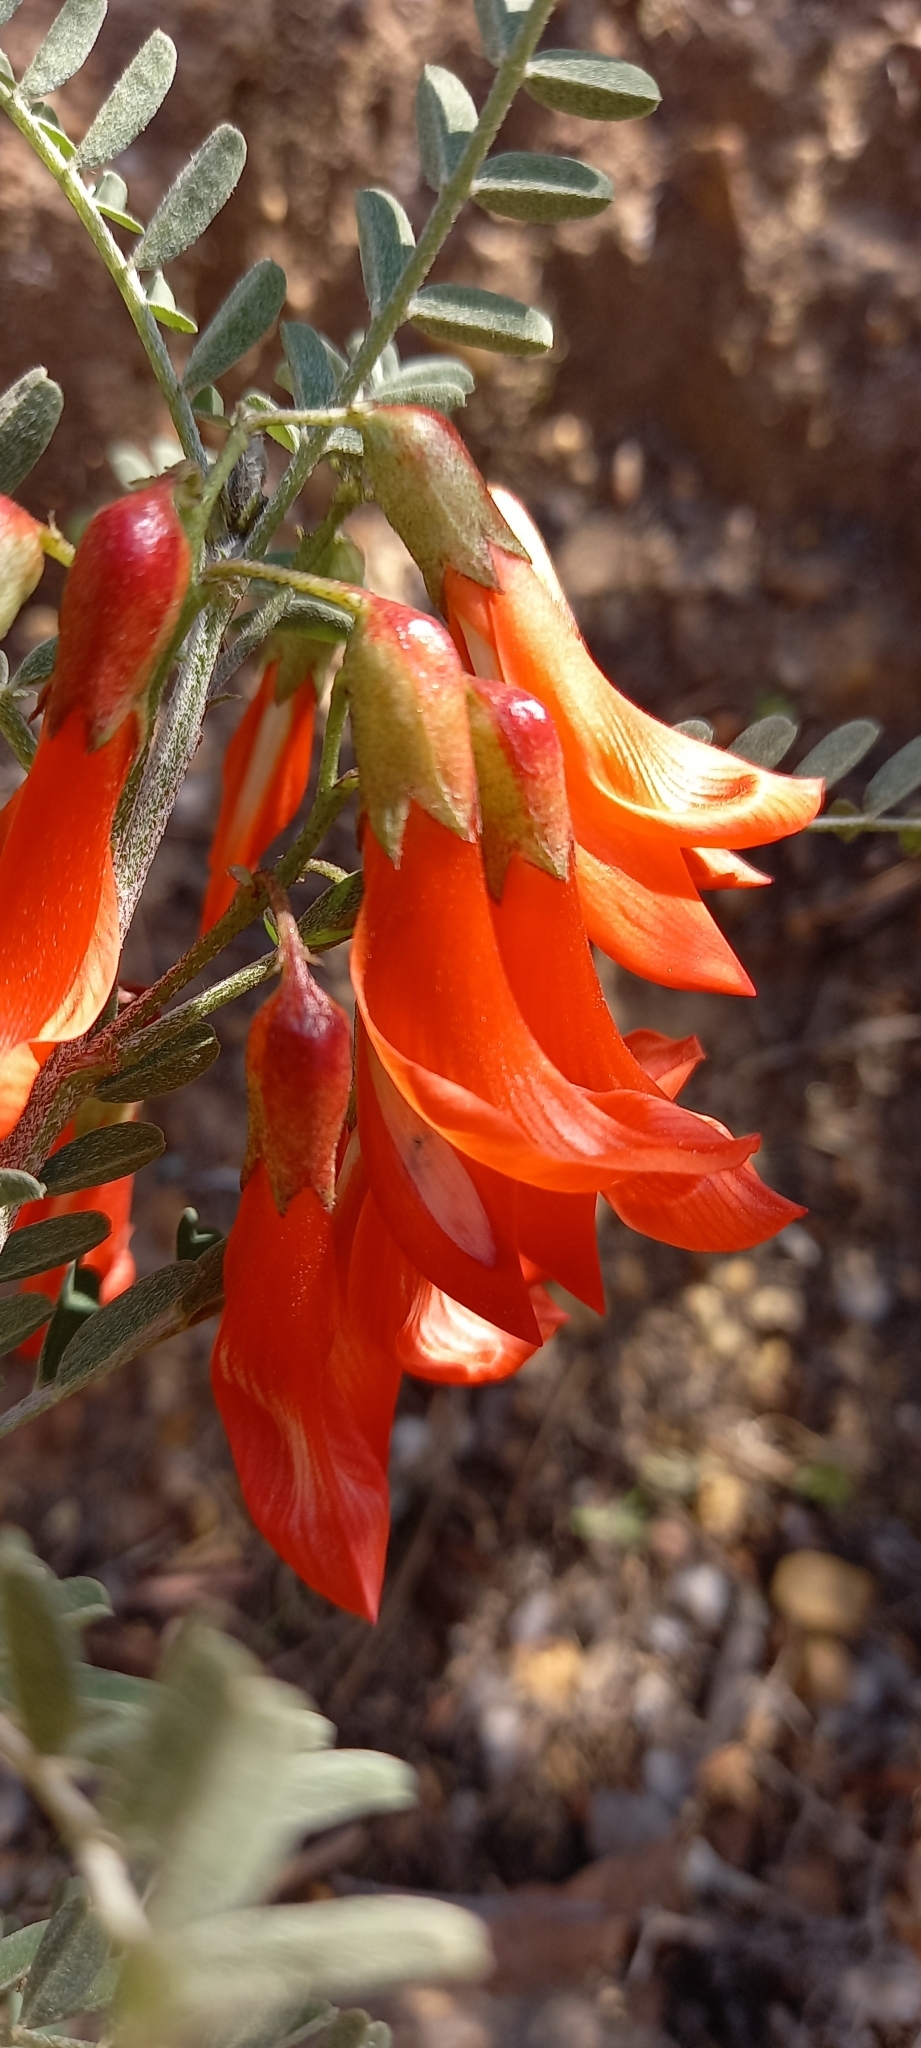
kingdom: Plantae
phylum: Tracheophyta
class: Magnoliopsida
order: Fabales
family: Fabaceae
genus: Lessertia
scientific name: Lessertia frutescens
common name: Balloon-pea
